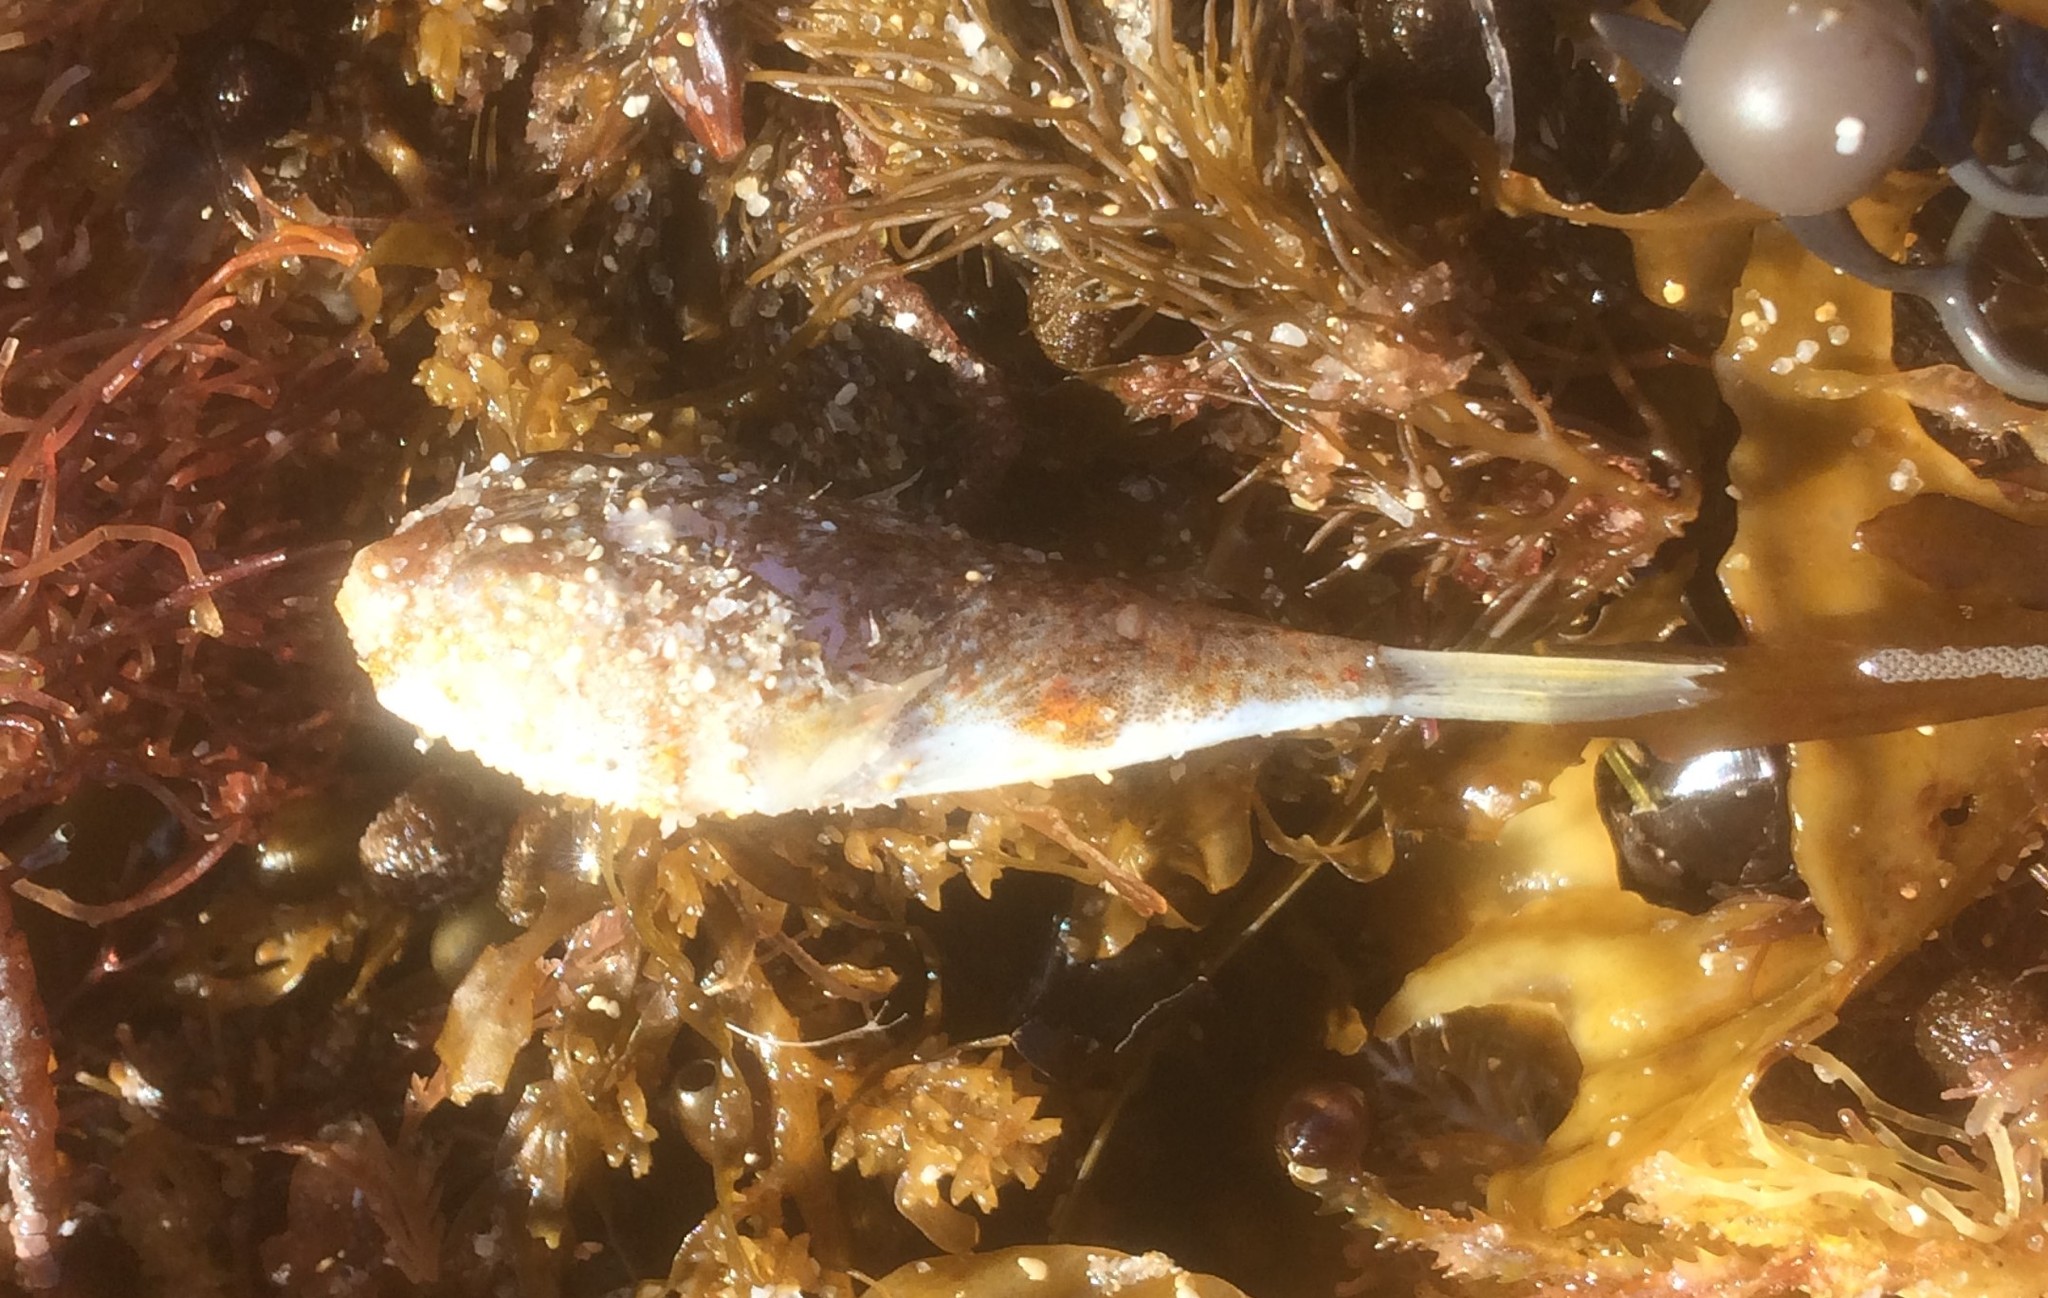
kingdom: Animalia
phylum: Chordata
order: Tetraodontiformes
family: Tetraodontidae
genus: Polyspina
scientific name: Polyspina piosae
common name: Orange-barred pufferfish
